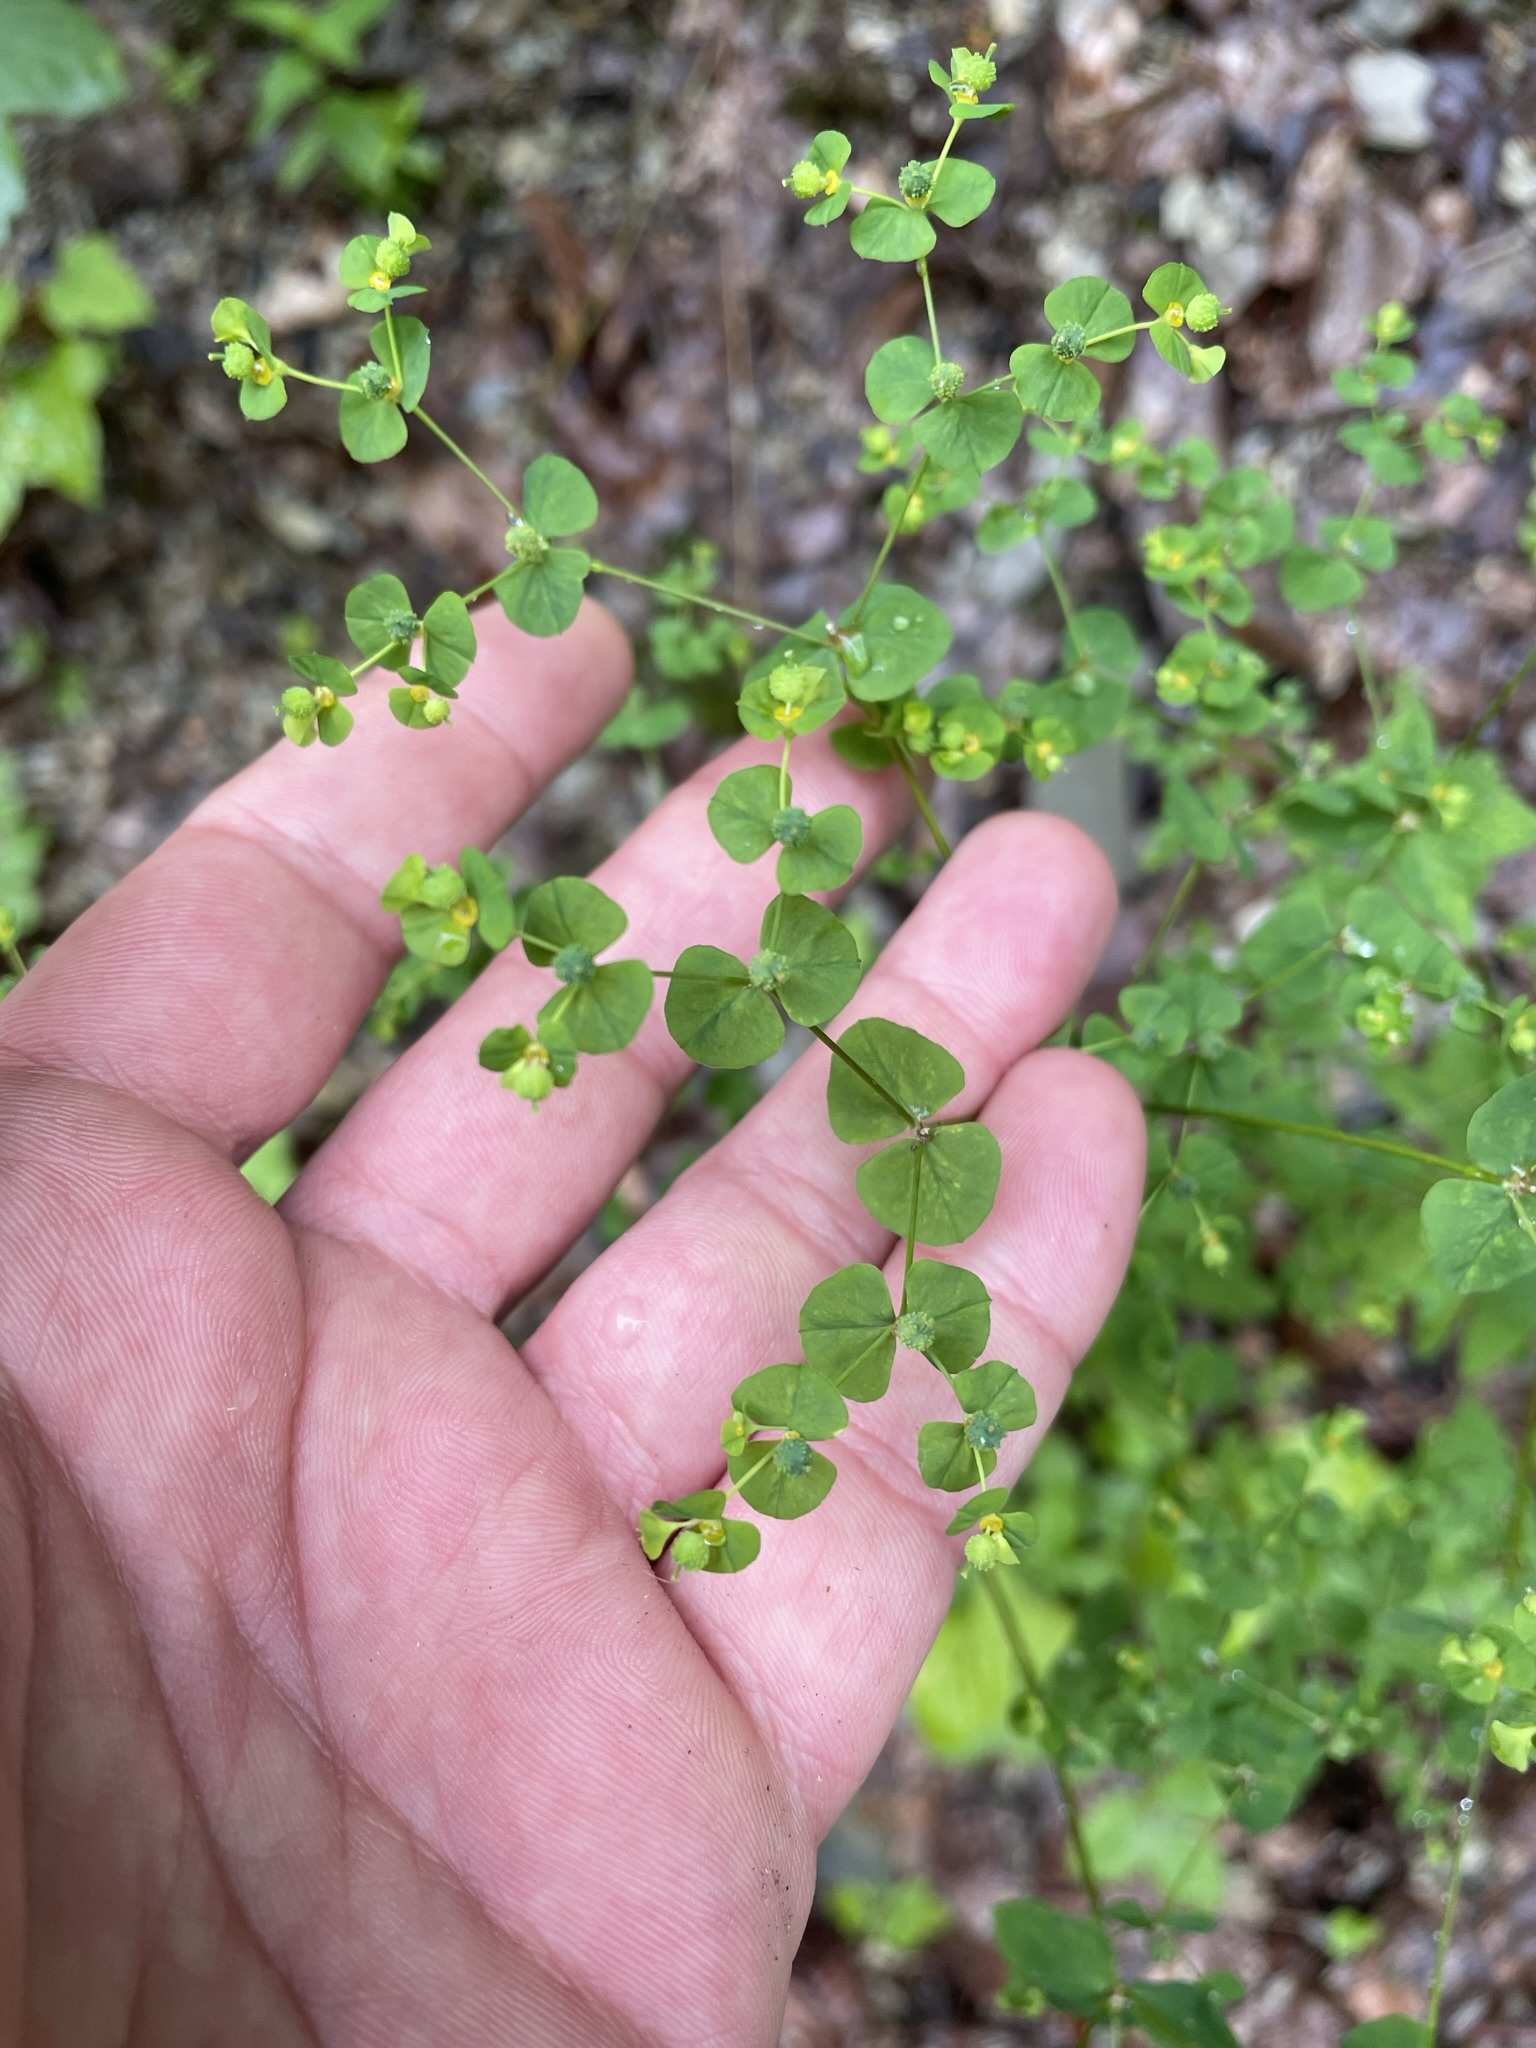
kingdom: Plantae
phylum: Tracheophyta
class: Magnoliopsida
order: Malpighiales
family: Euphorbiaceae
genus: Euphorbia
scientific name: Euphorbia stricta
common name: Upright spurge
